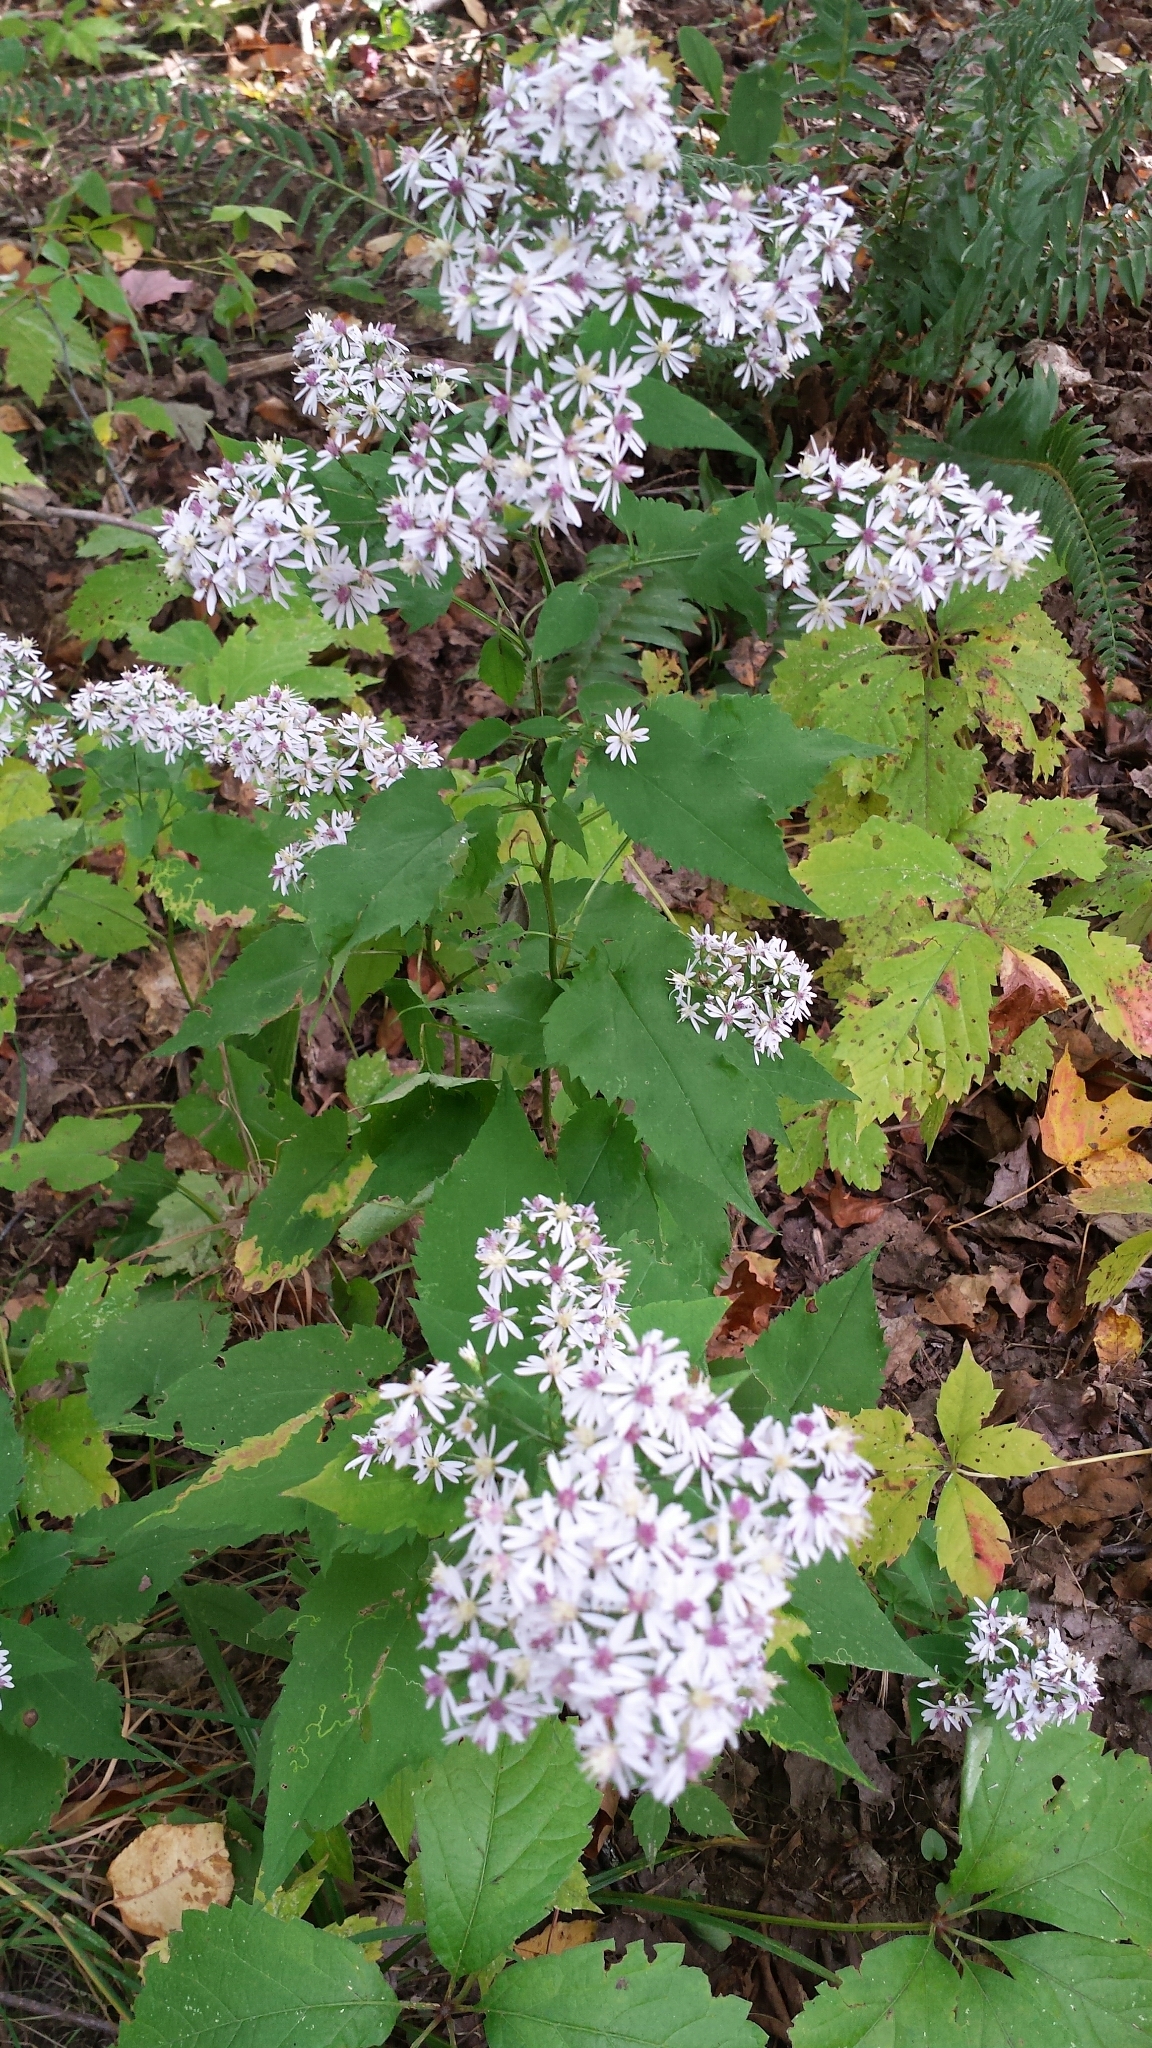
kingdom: Plantae
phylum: Tracheophyta
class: Magnoliopsida
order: Asterales
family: Asteraceae
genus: Symphyotrichum
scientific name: Symphyotrichum cordifolium
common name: Beeweed
